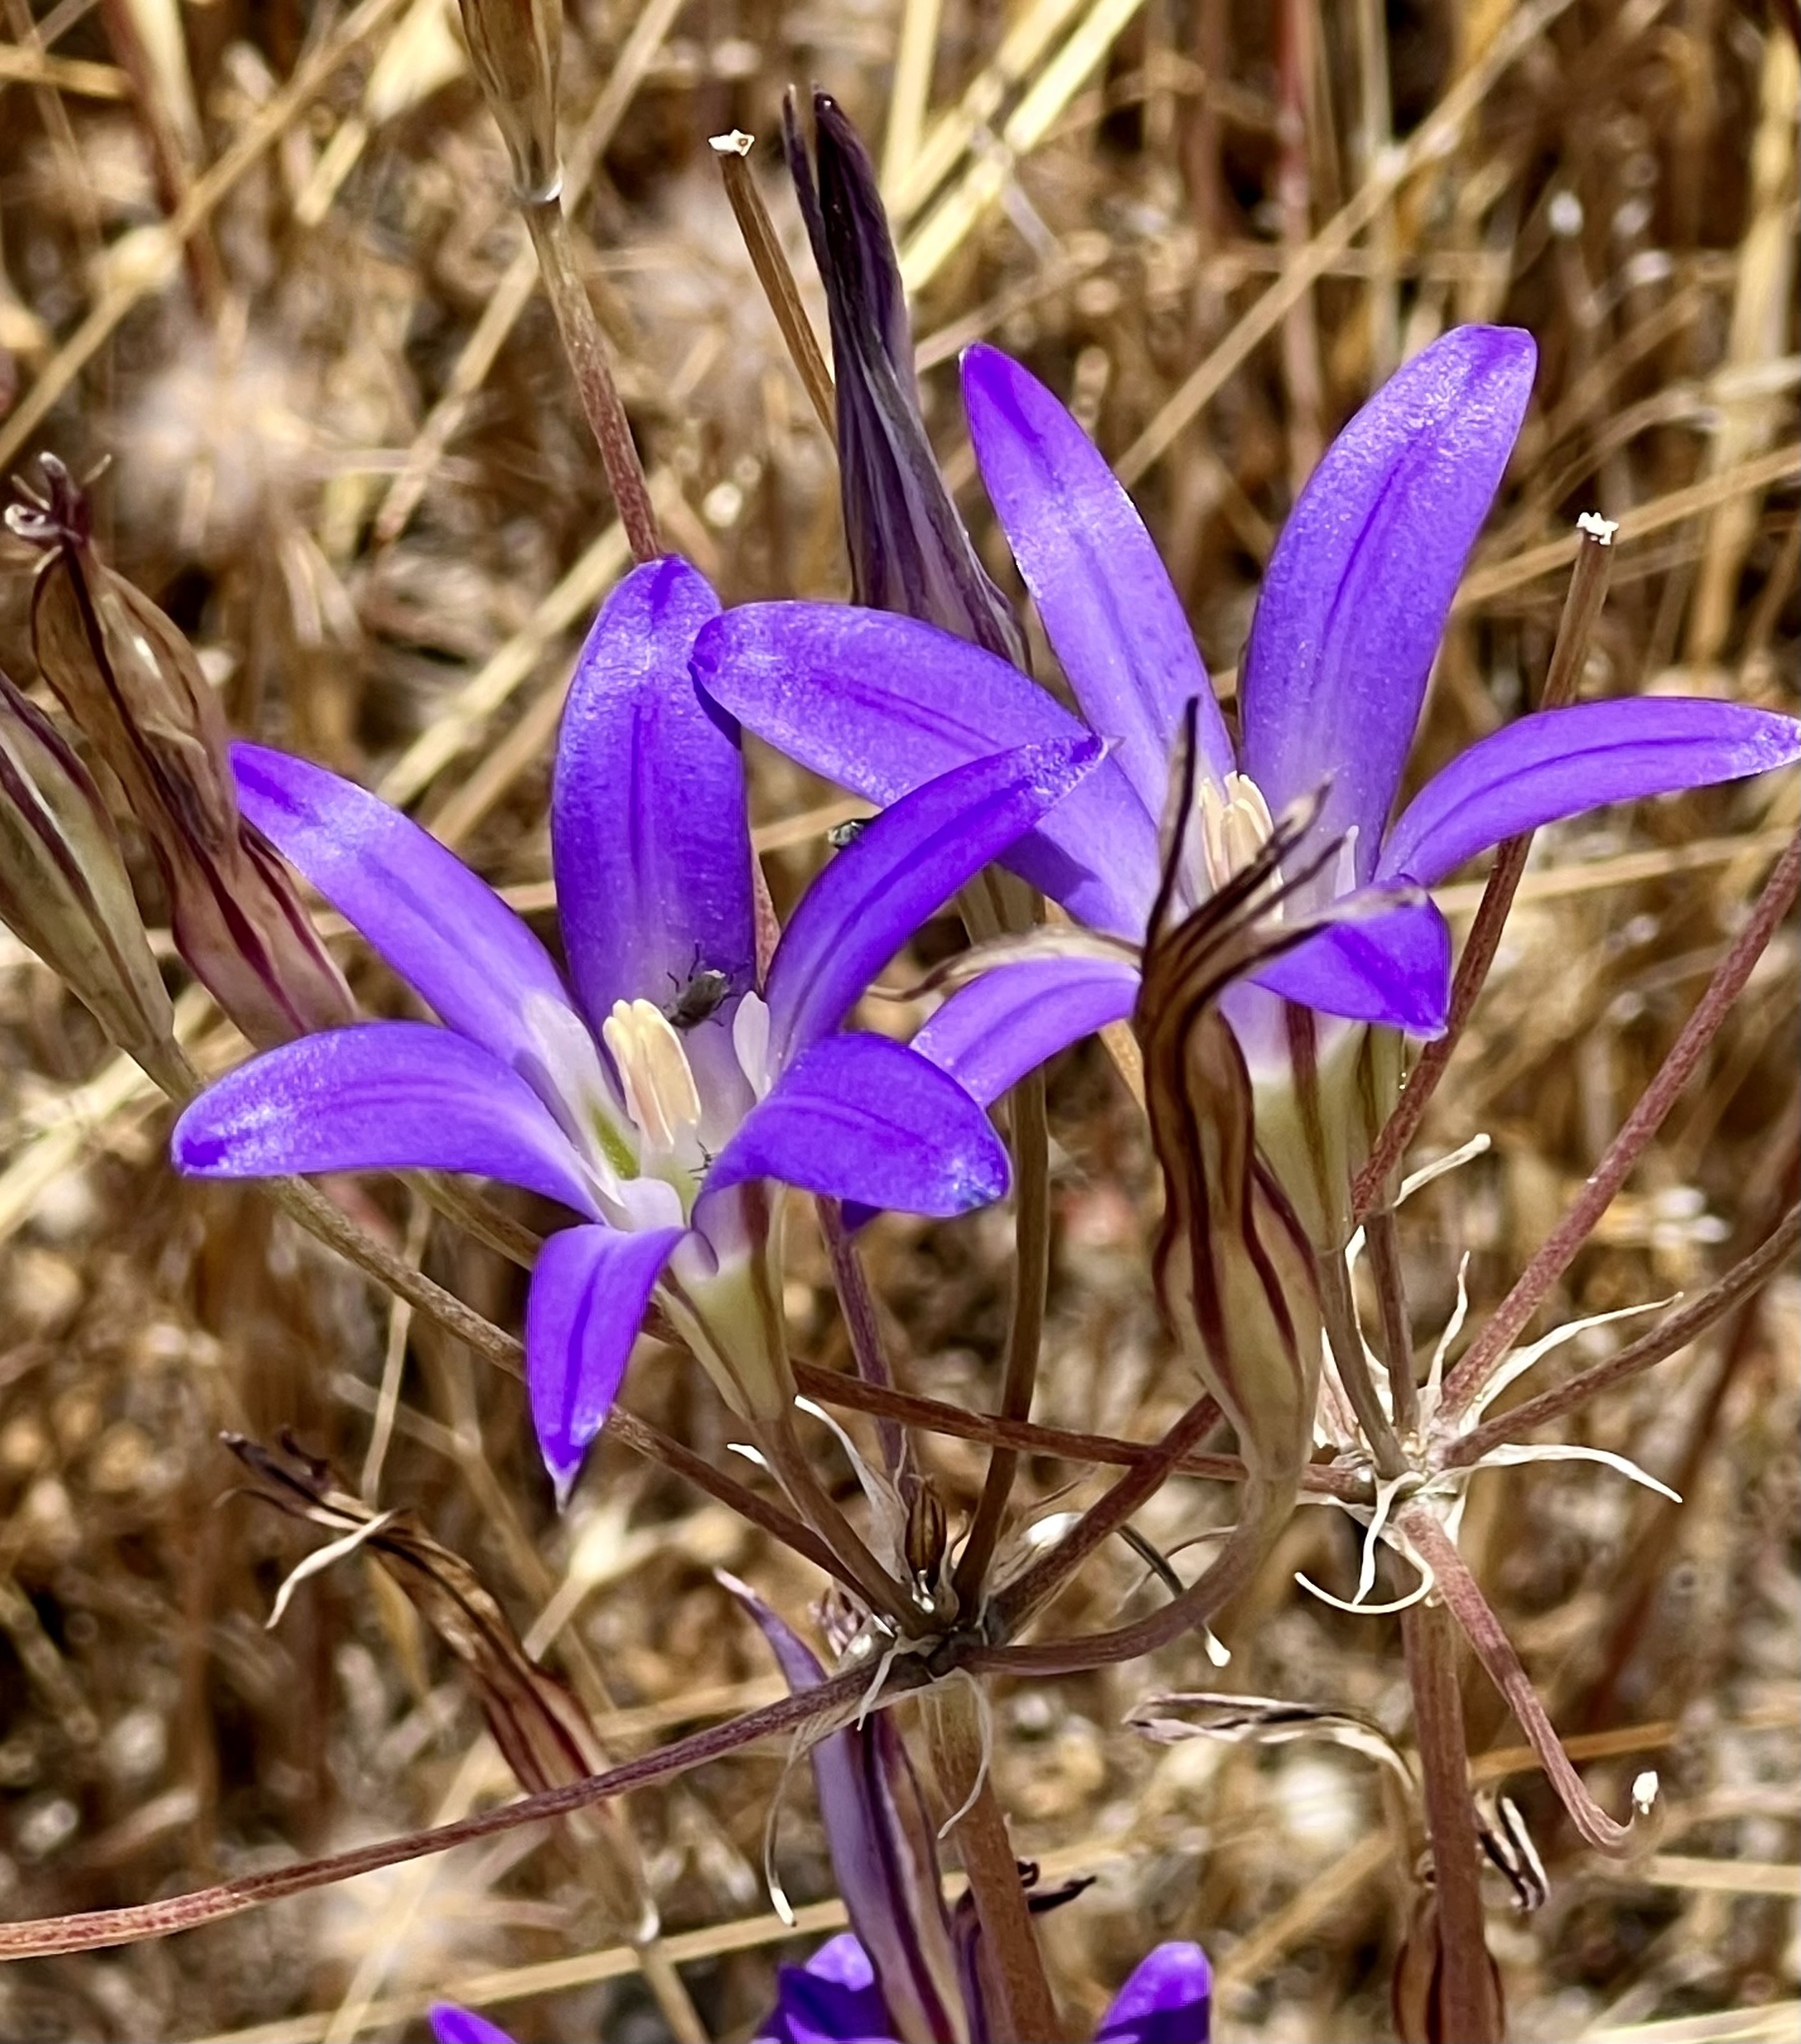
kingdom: Plantae
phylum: Tracheophyta
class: Liliopsida
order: Asparagales
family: Asparagaceae
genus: Brodiaea
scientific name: Brodiaea elegans
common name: Elegant cluster-lily
